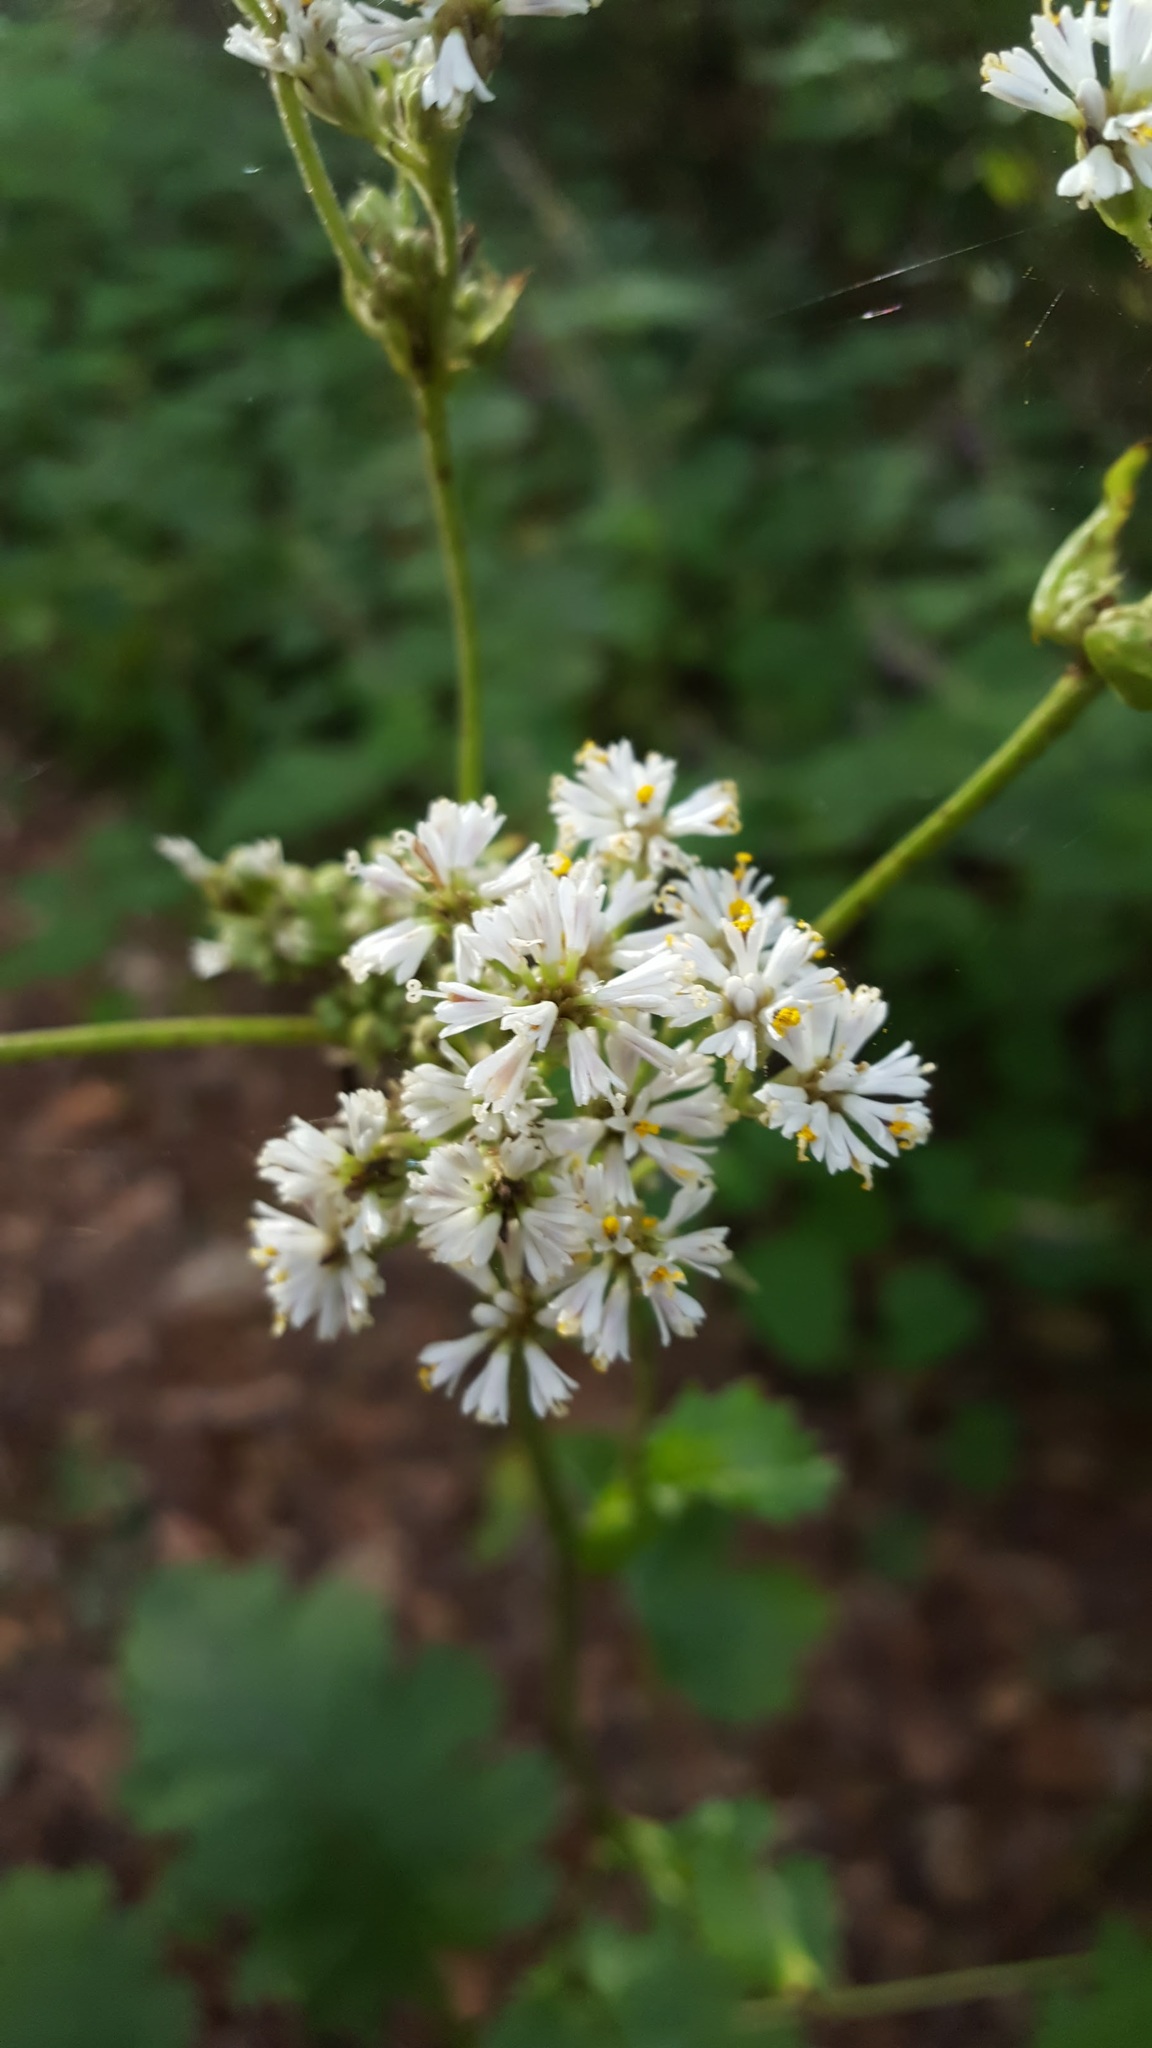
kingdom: Plantae
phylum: Tracheophyta
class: Magnoliopsida
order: Asterales
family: Asteraceae
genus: Psacalium
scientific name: Psacalium amplifolium
